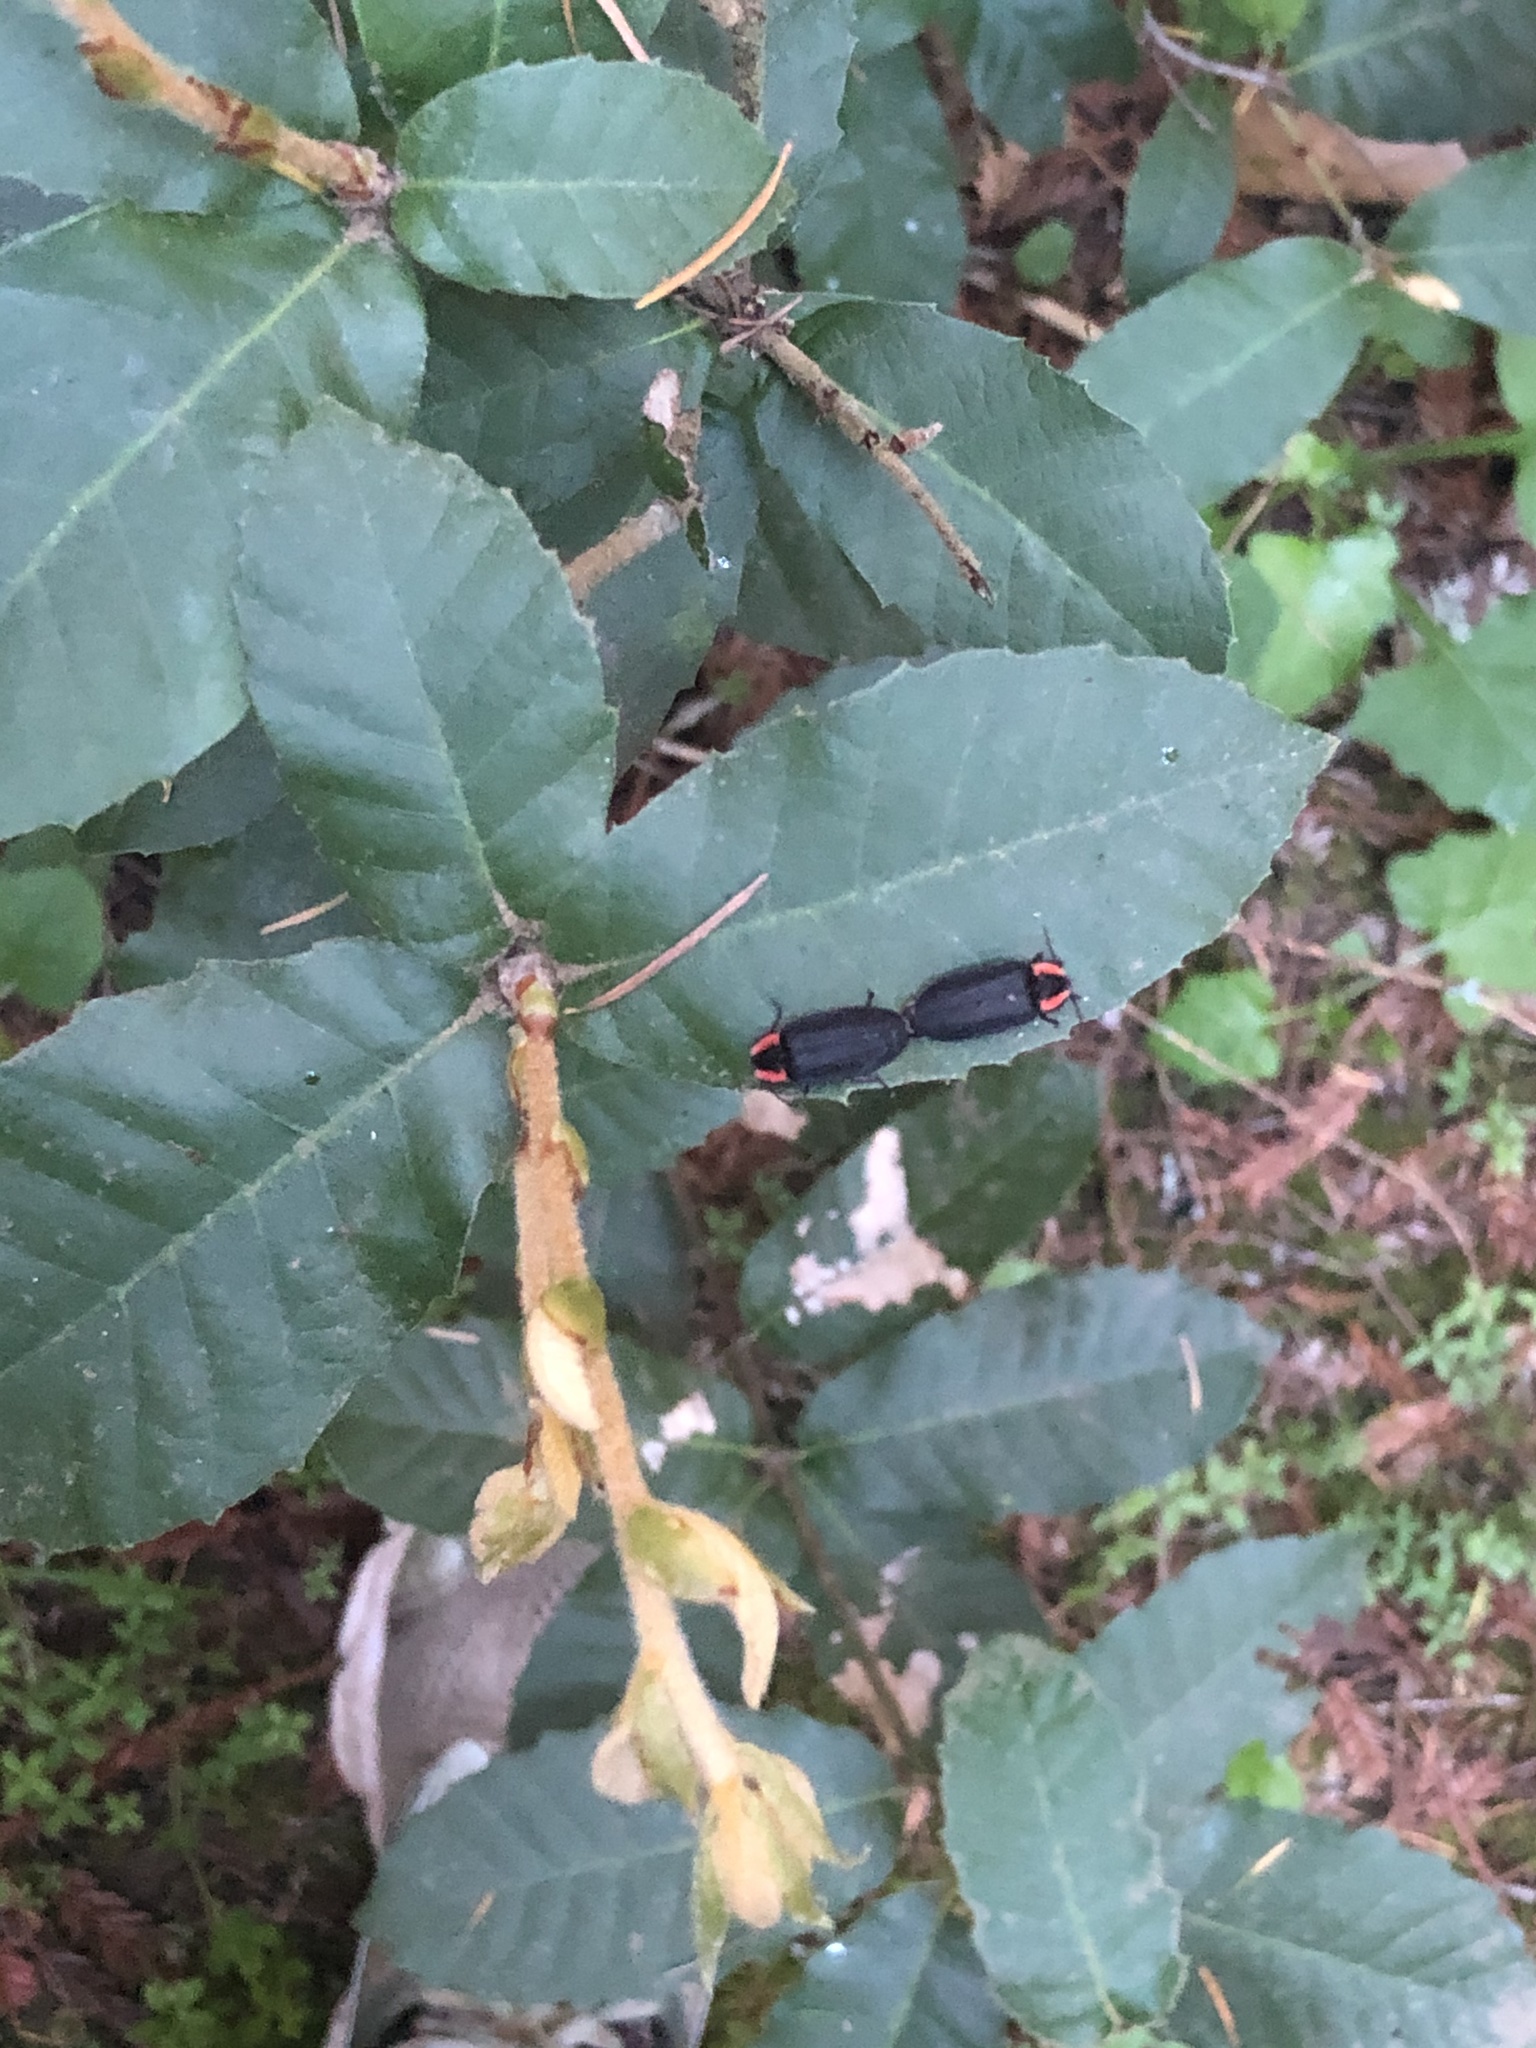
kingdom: Animalia
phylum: Arthropoda
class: Insecta
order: Coleoptera
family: Lampyridae
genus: Photinus
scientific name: Photinus californica
